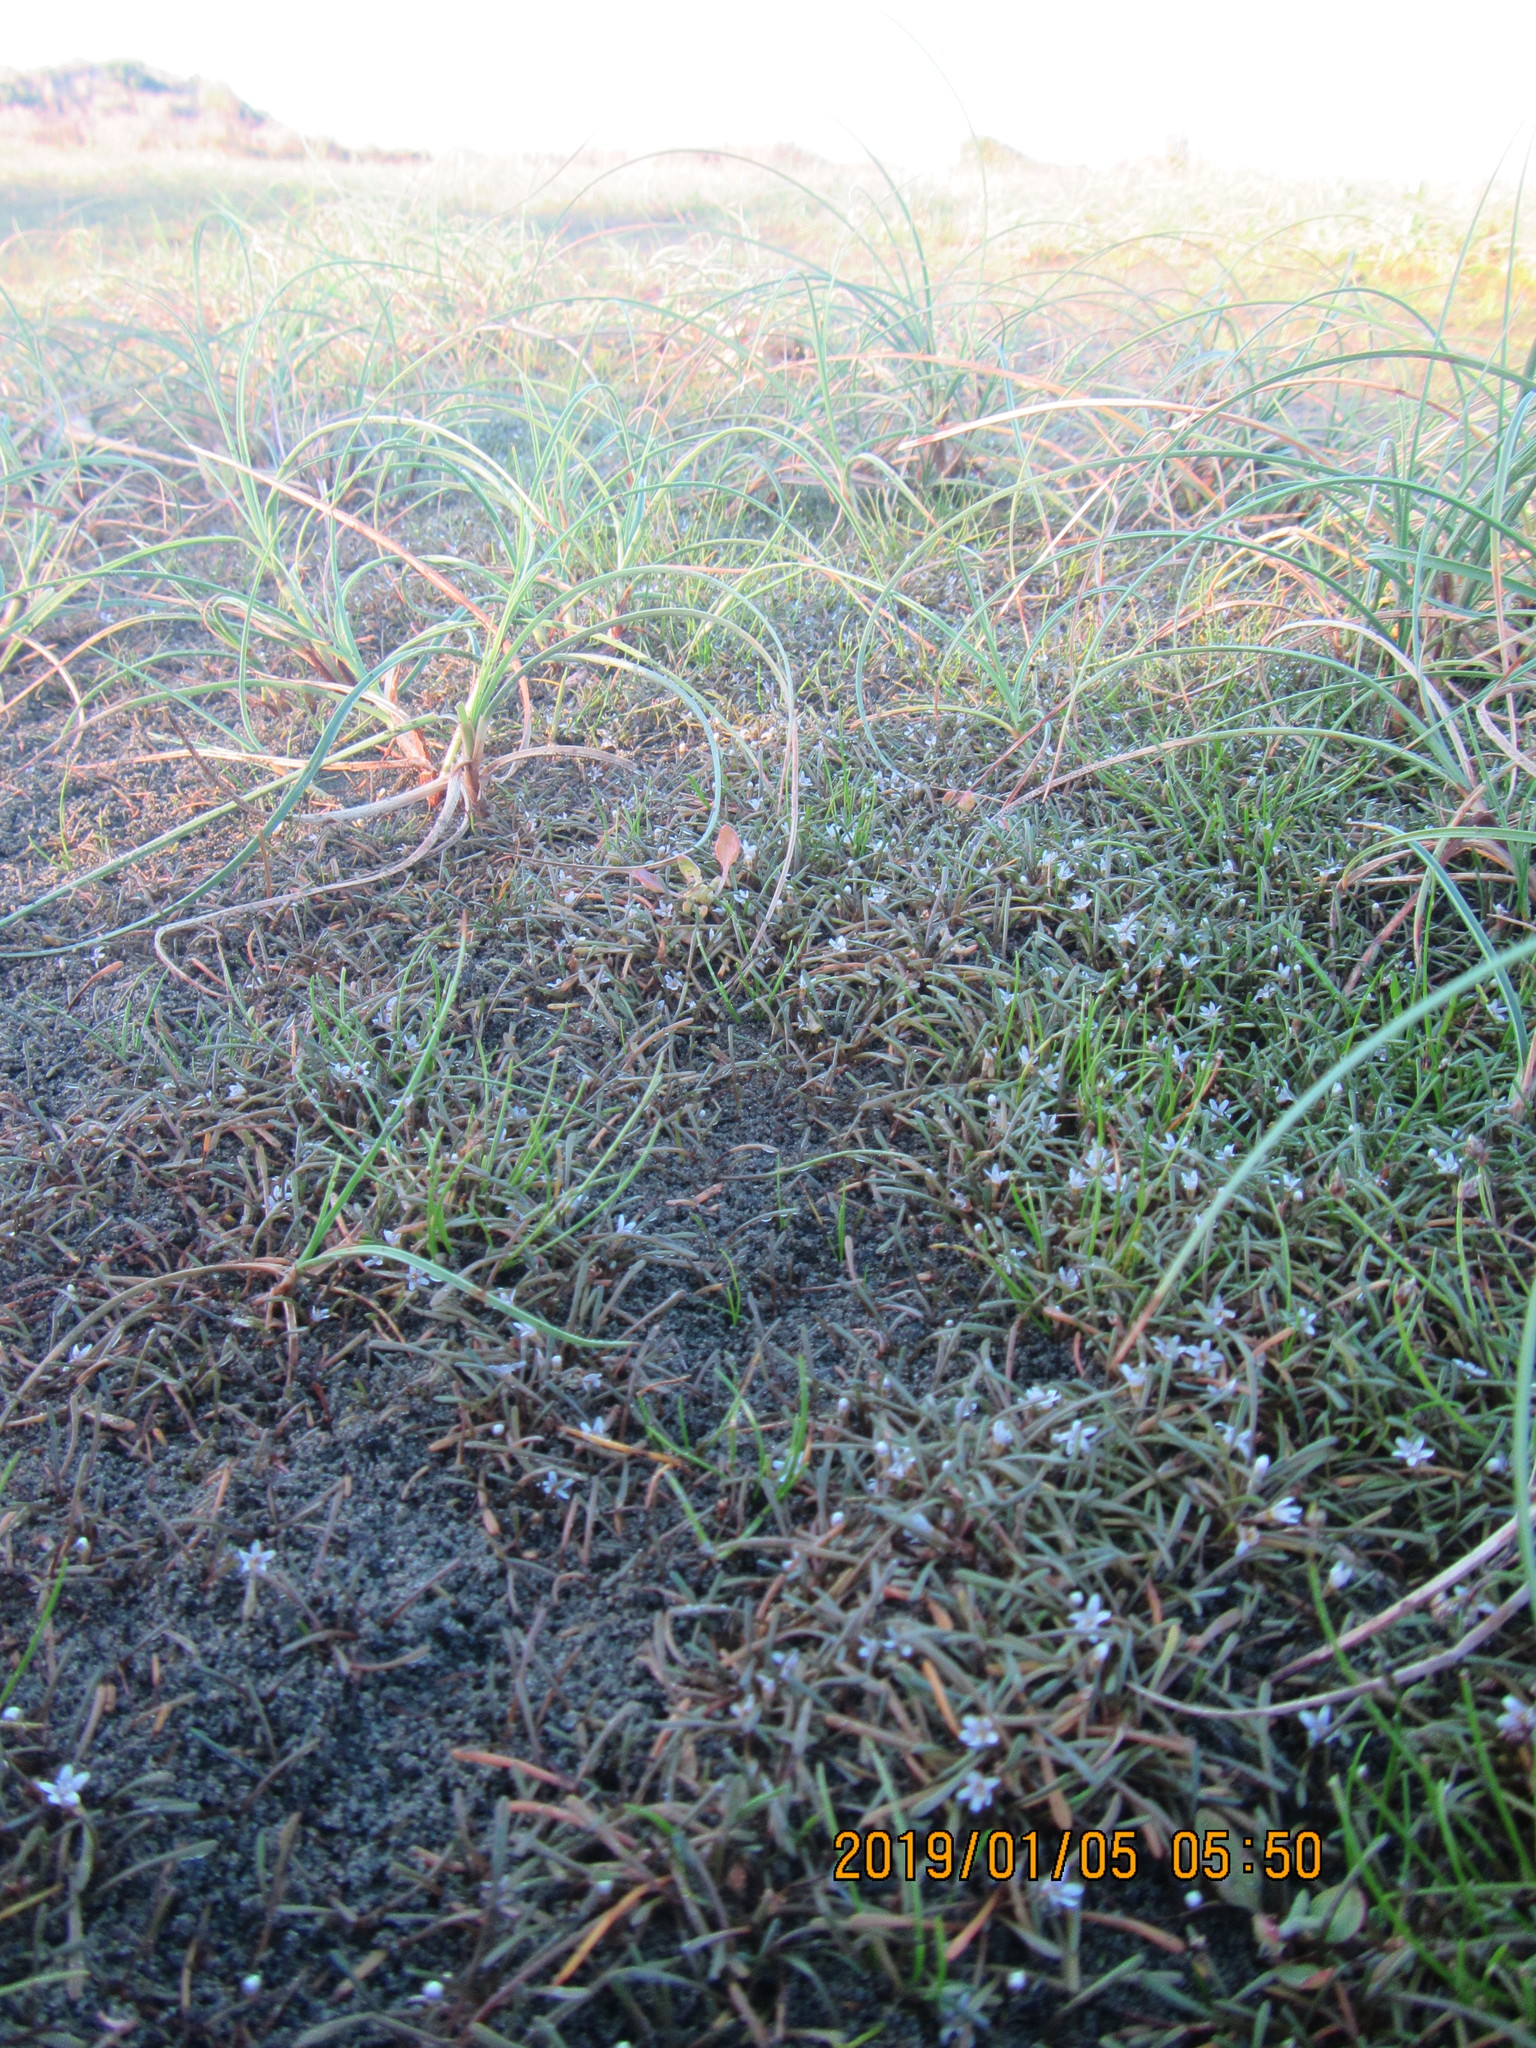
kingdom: Plantae
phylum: Tracheophyta
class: Magnoliopsida
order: Lamiales
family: Scrophulariaceae
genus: Limosella
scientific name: Limosella australis
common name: Welsh mudwort
